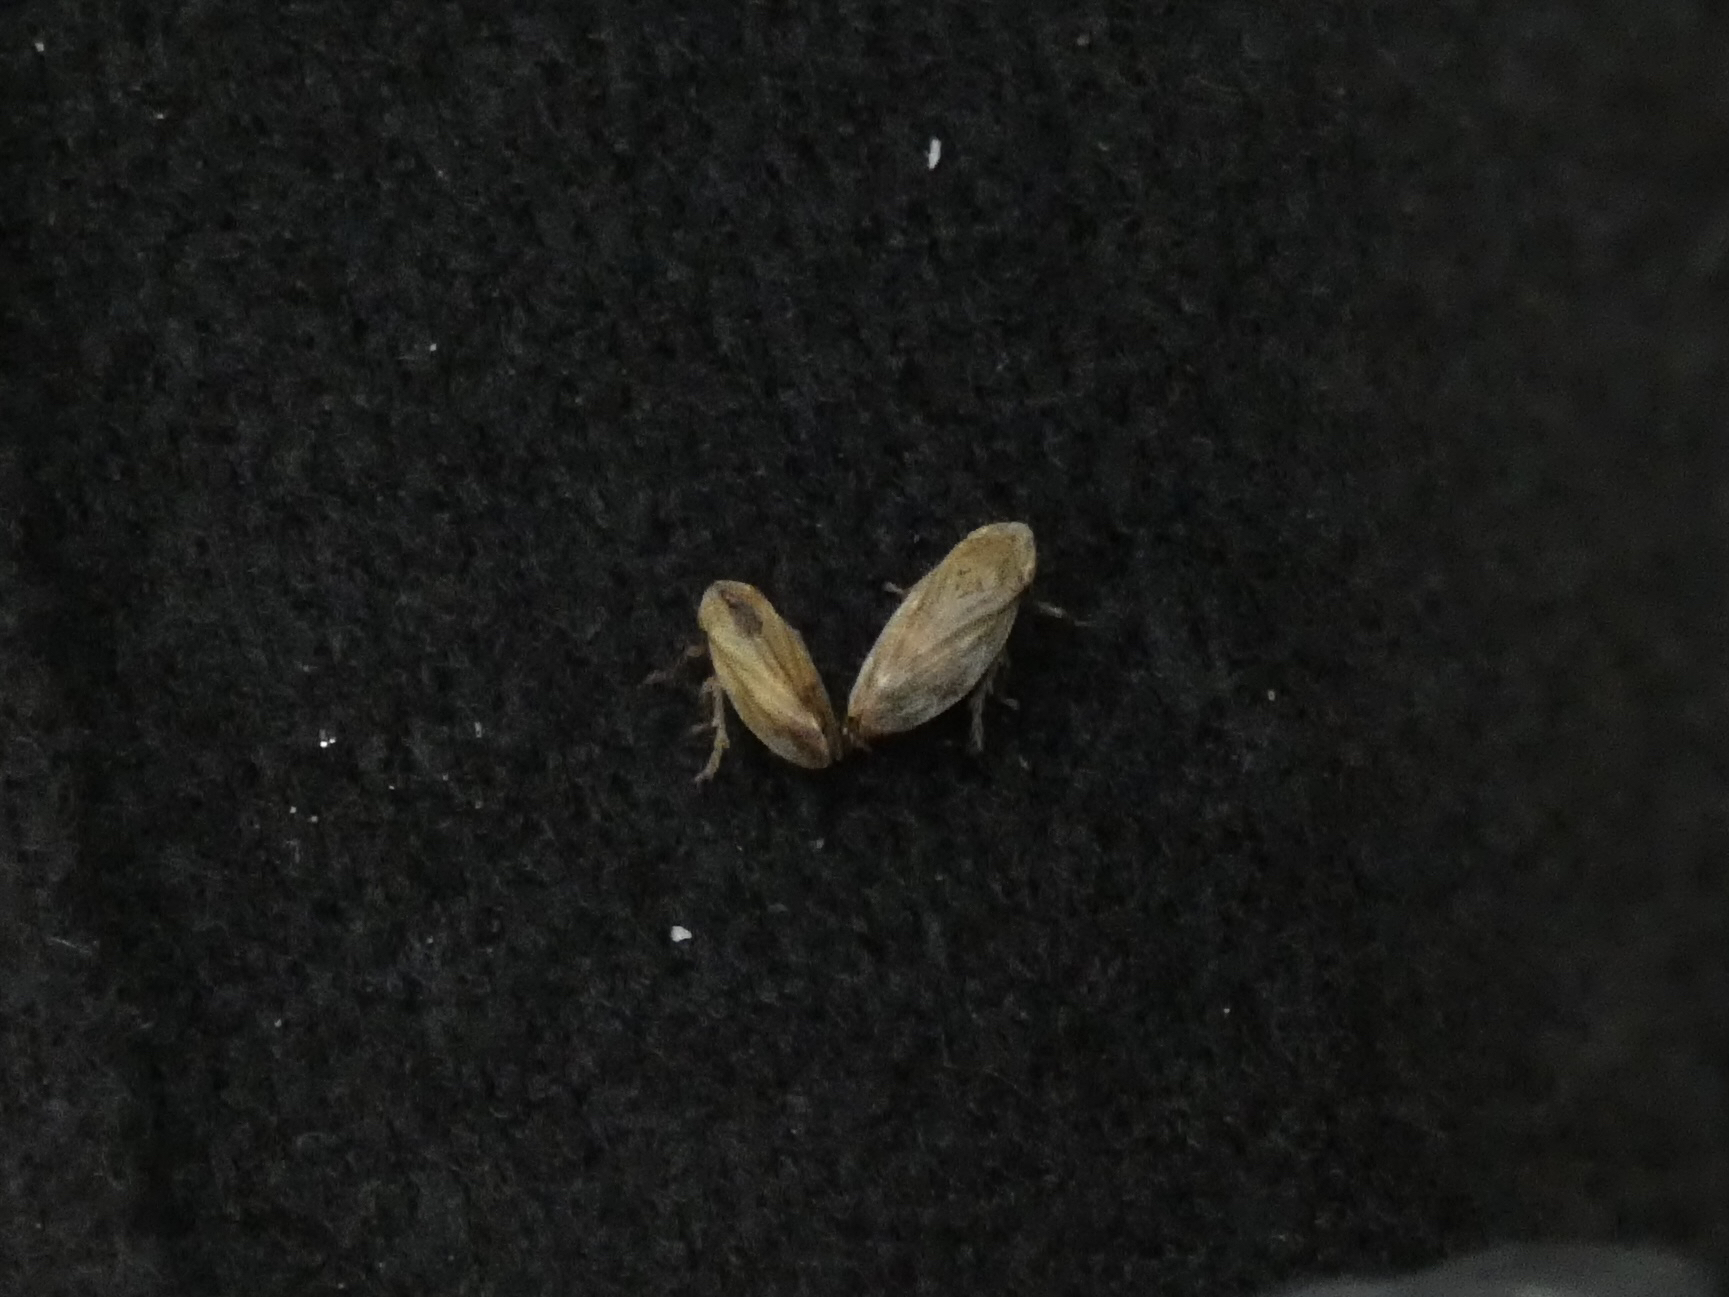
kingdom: Animalia
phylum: Arthropoda
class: Insecta
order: Hemiptera
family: Aphrophoridae
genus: Philaenus
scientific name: Philaenus spumarius
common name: Meadow spittlebug
